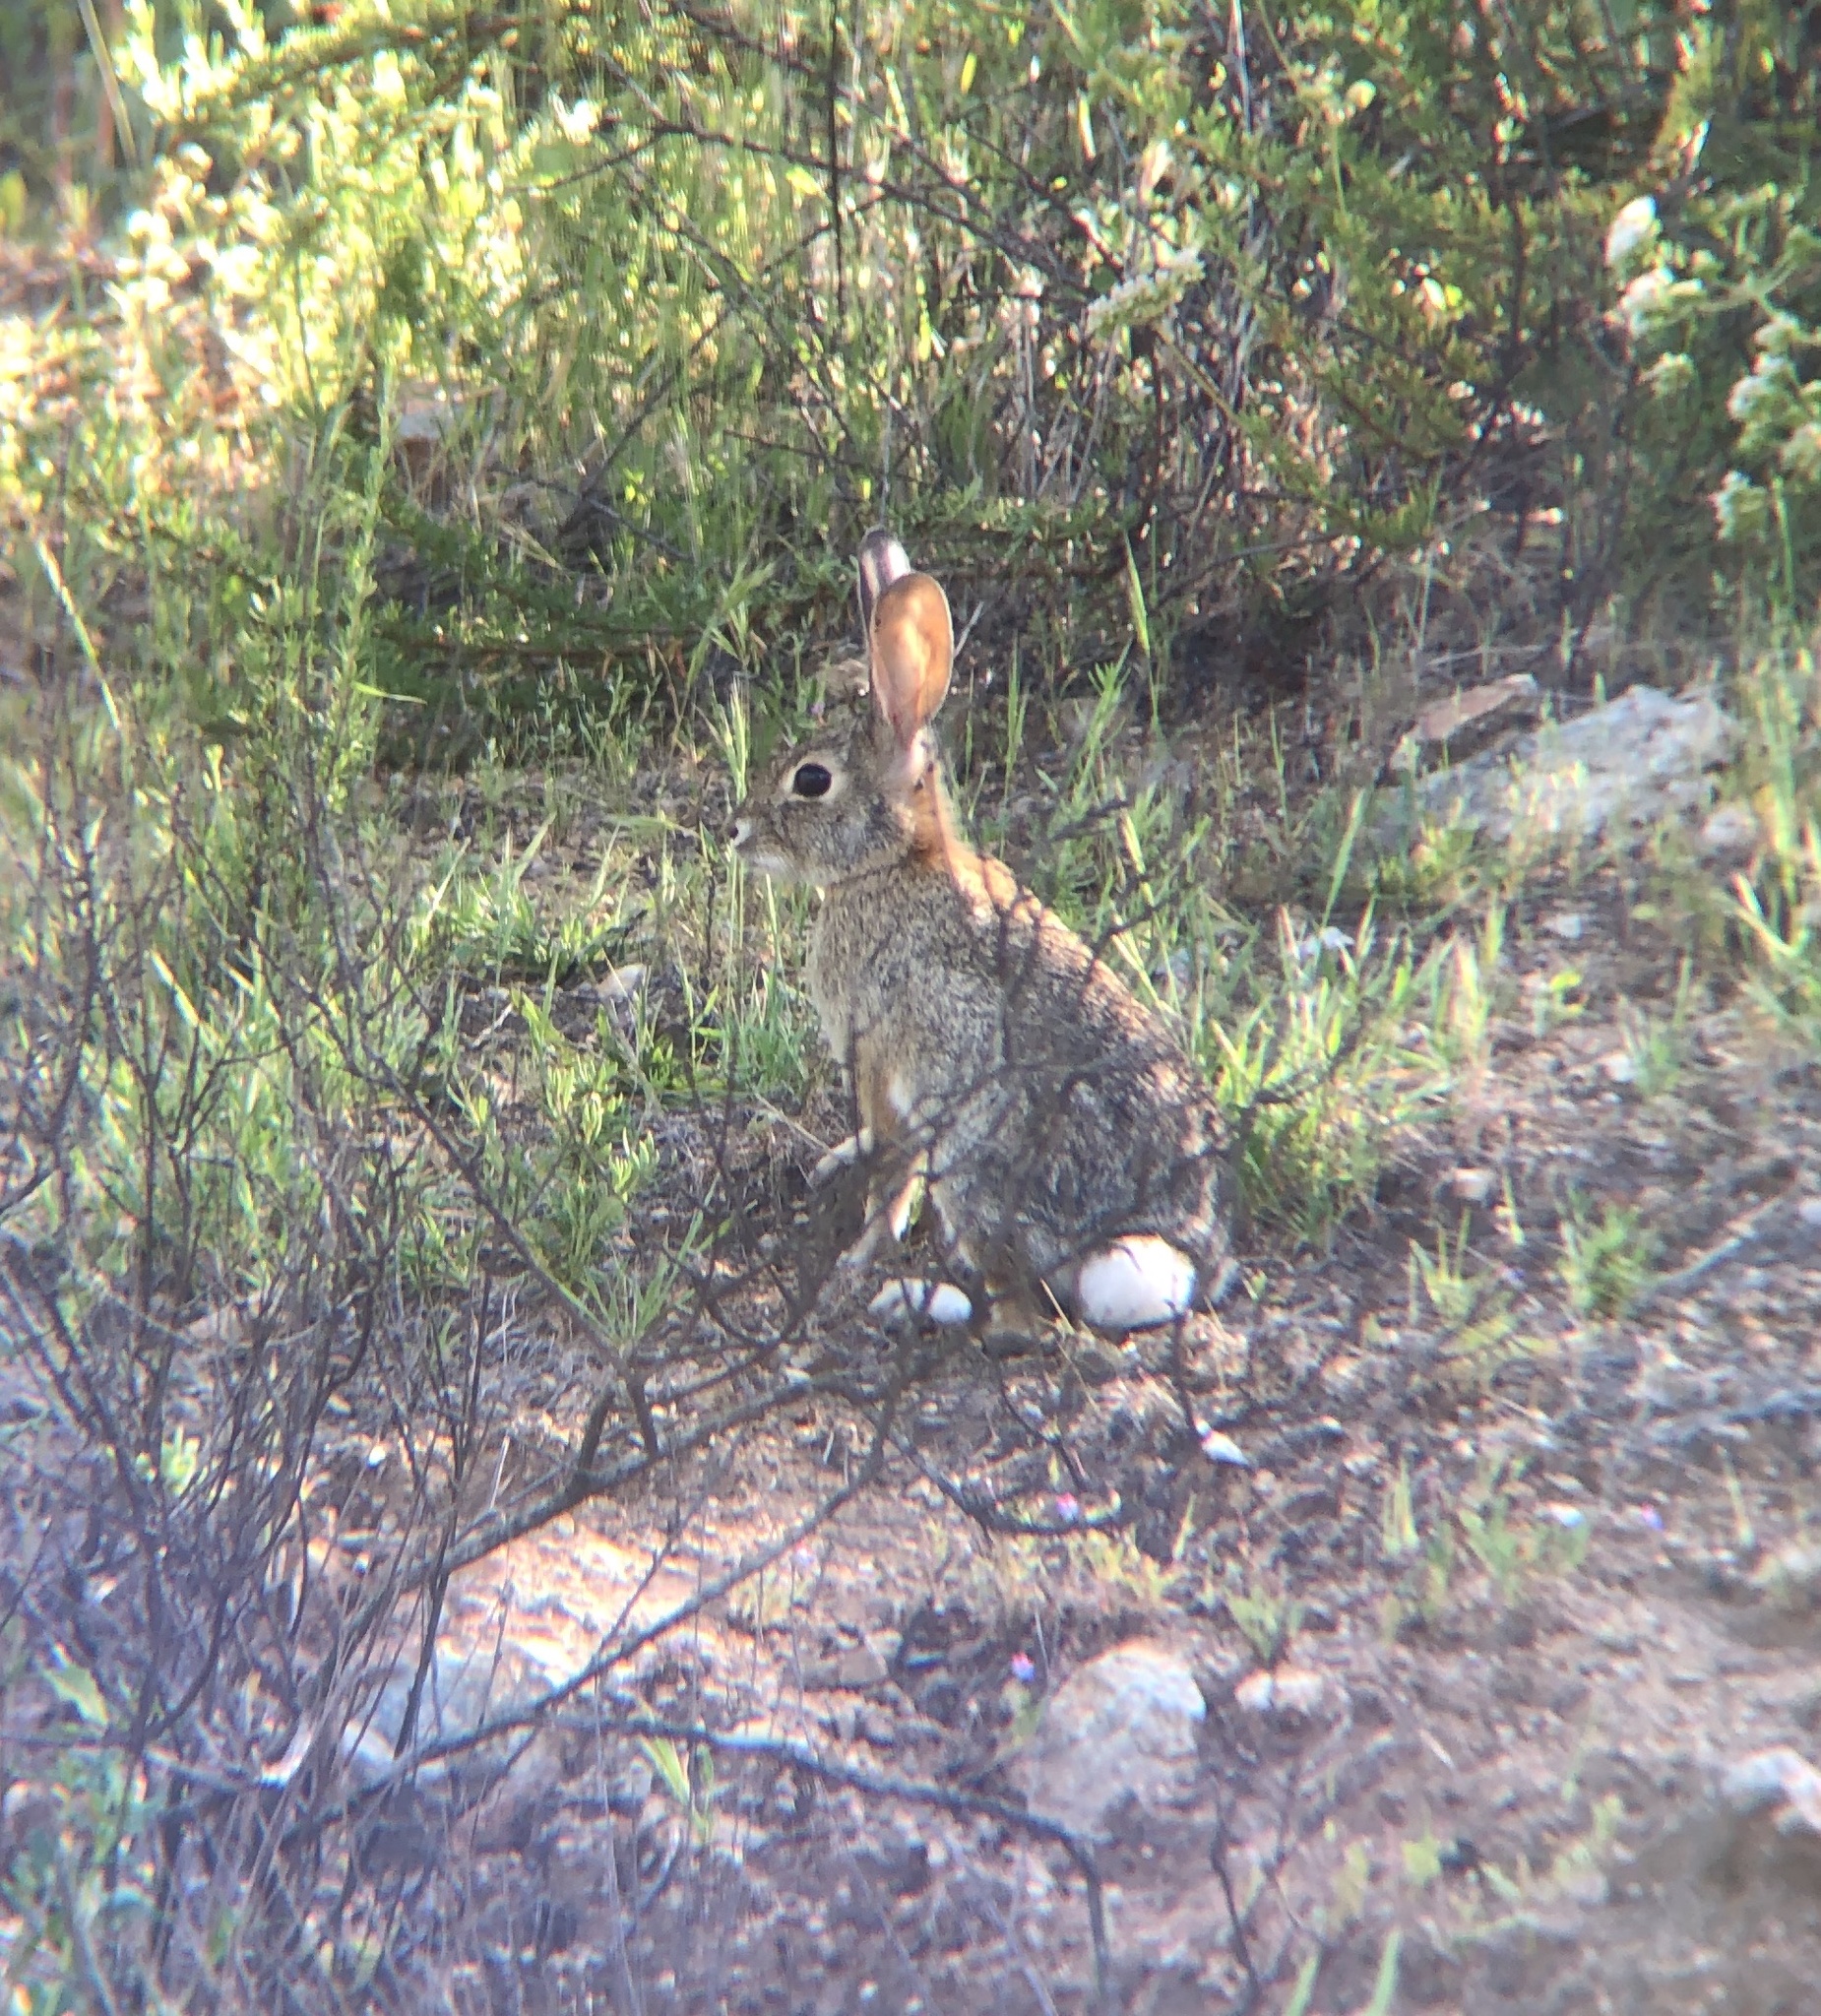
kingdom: Animalia
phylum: Chordata
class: Mammalia
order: Lagomorpha
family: Leporidae
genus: Sylvilagus
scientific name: Sylvilagus audubonii
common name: Desert cottontail
